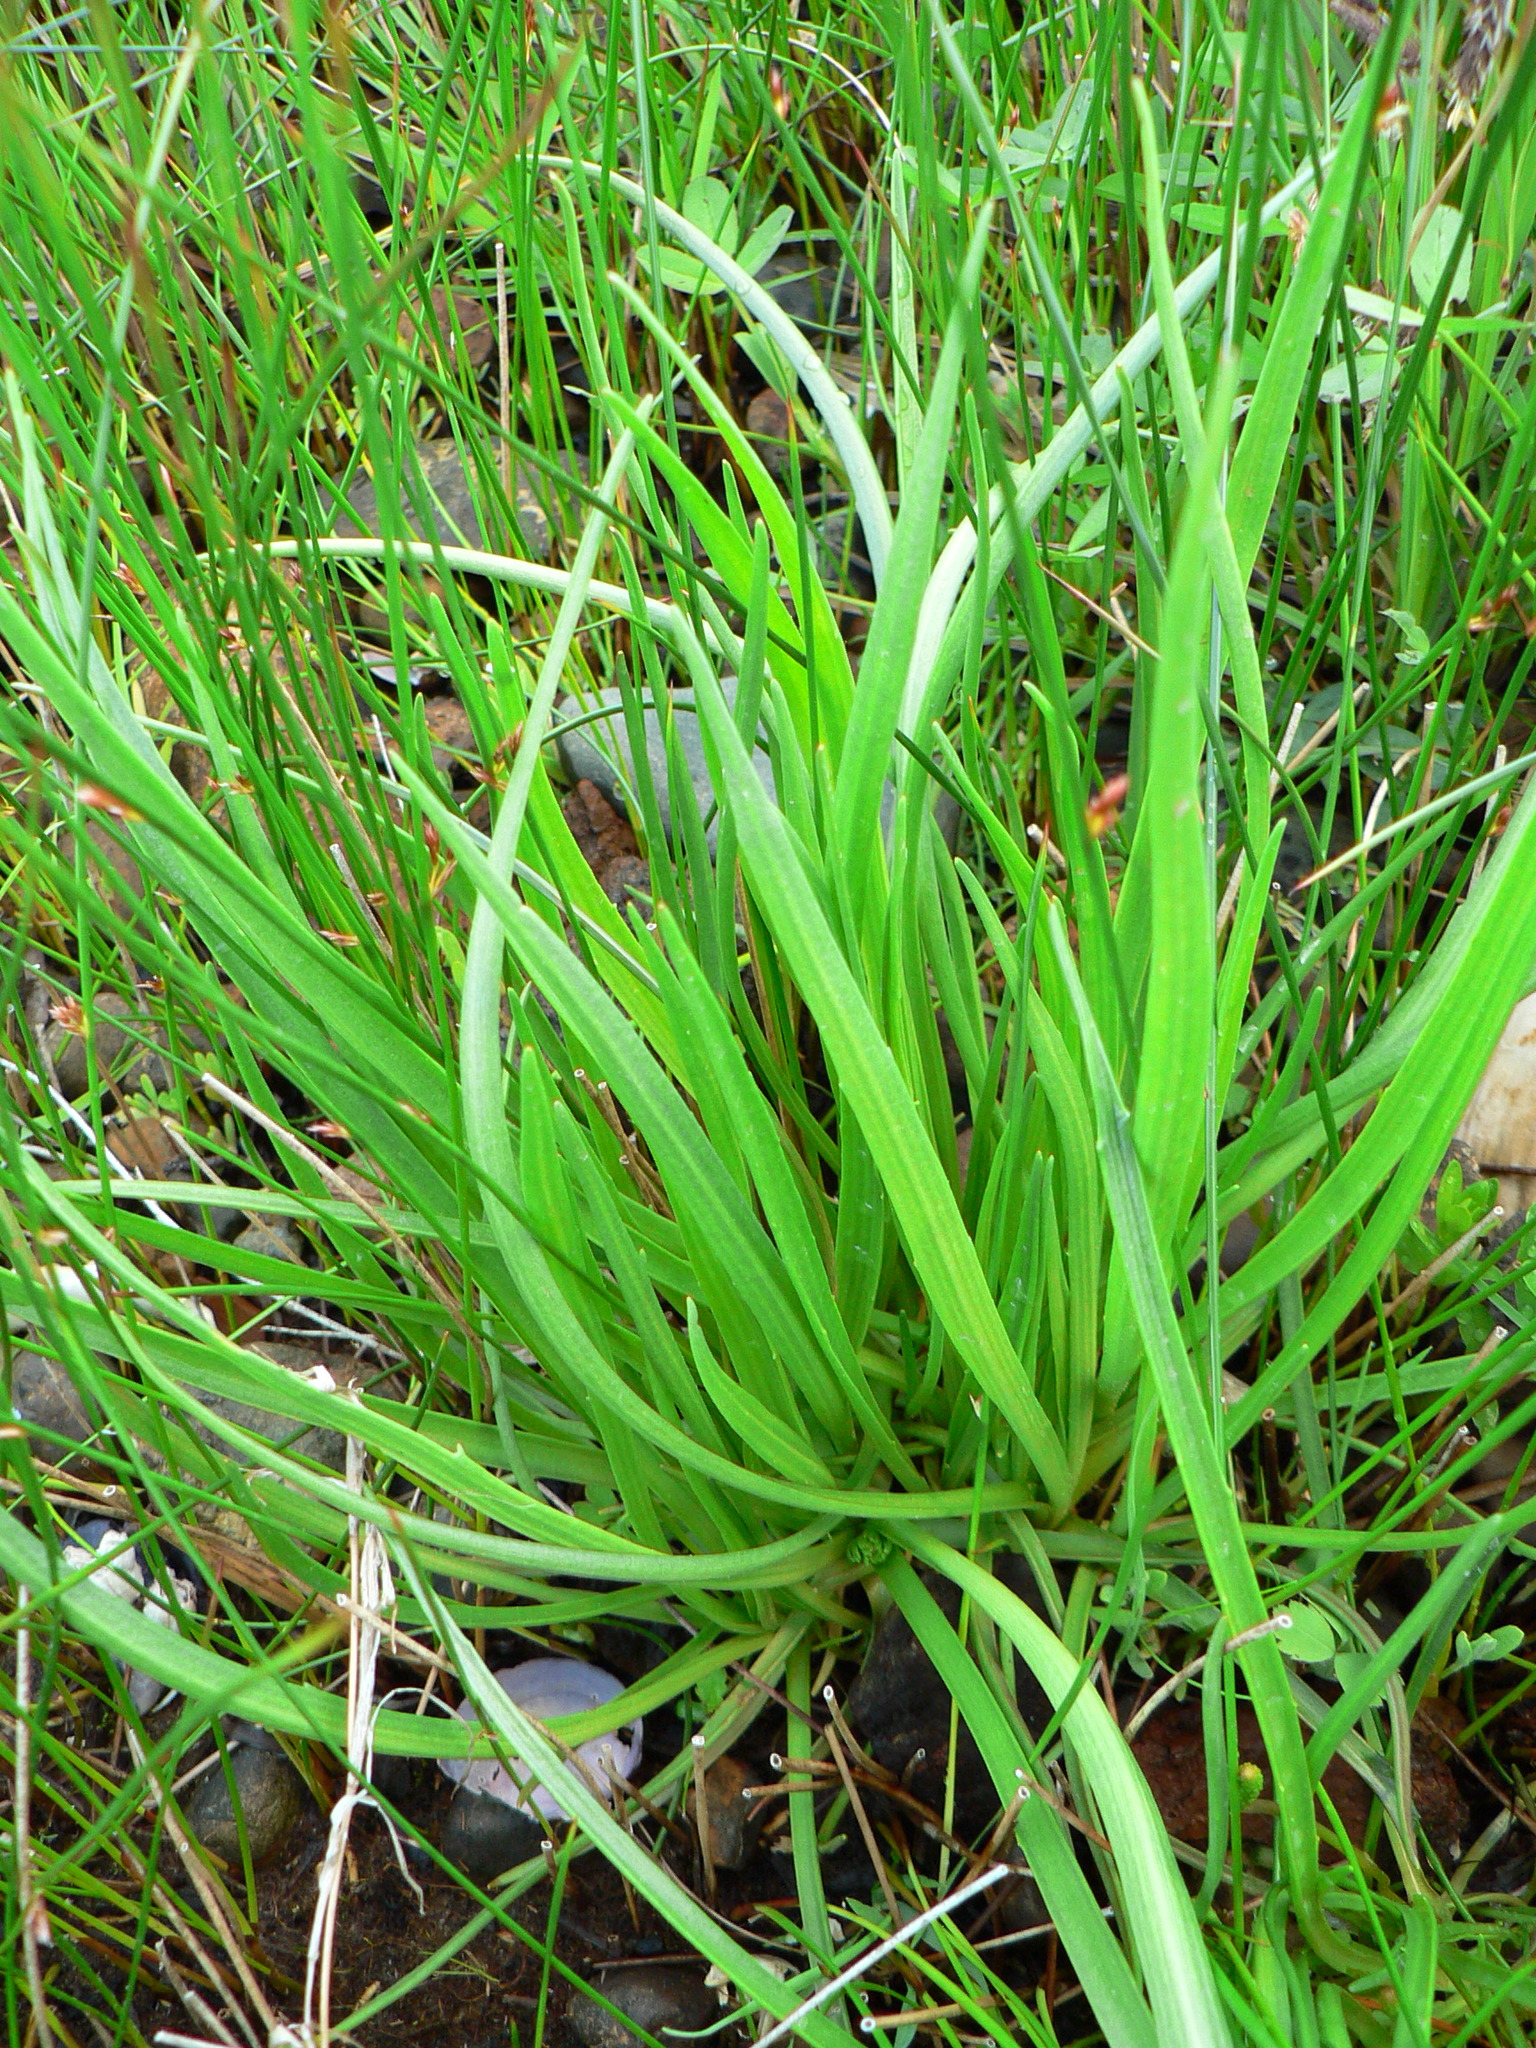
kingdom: Plantae
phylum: Tracheophyta
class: Magnoliopsida
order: Lamiales
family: Plantaginaceae
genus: Plantago
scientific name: Plantago maritima
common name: Sea plantain
